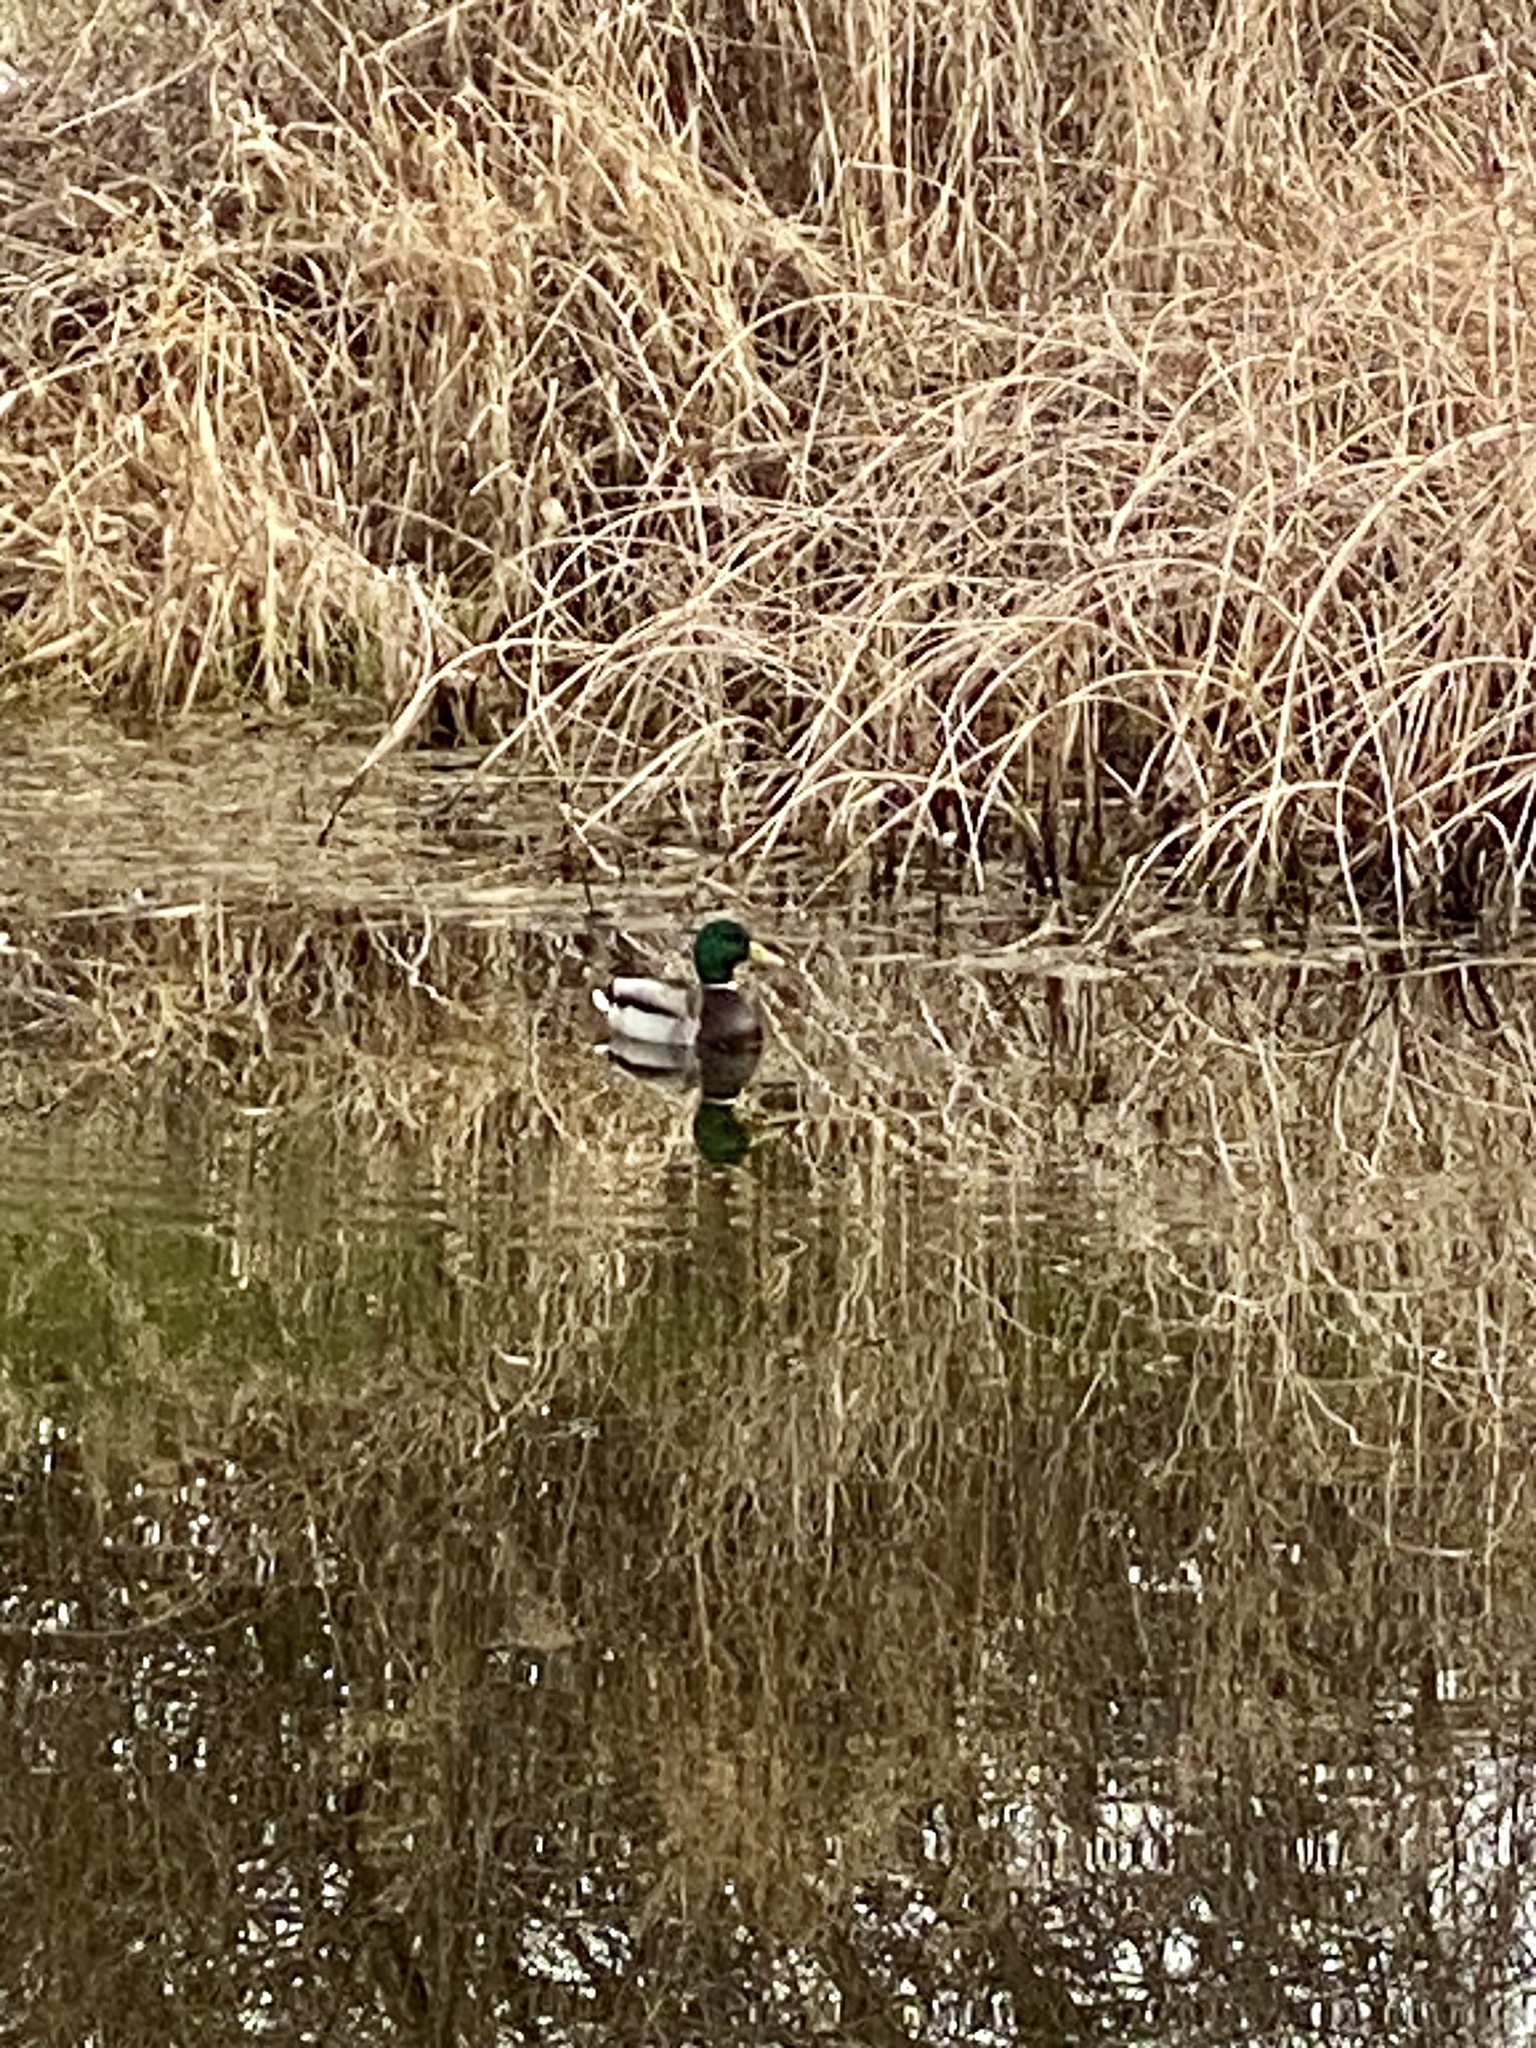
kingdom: Animalia
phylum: Chordata
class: Aves
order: Anseriformes
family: Anatidae
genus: Anas
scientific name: Anas platyrhynchos
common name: Mallard
